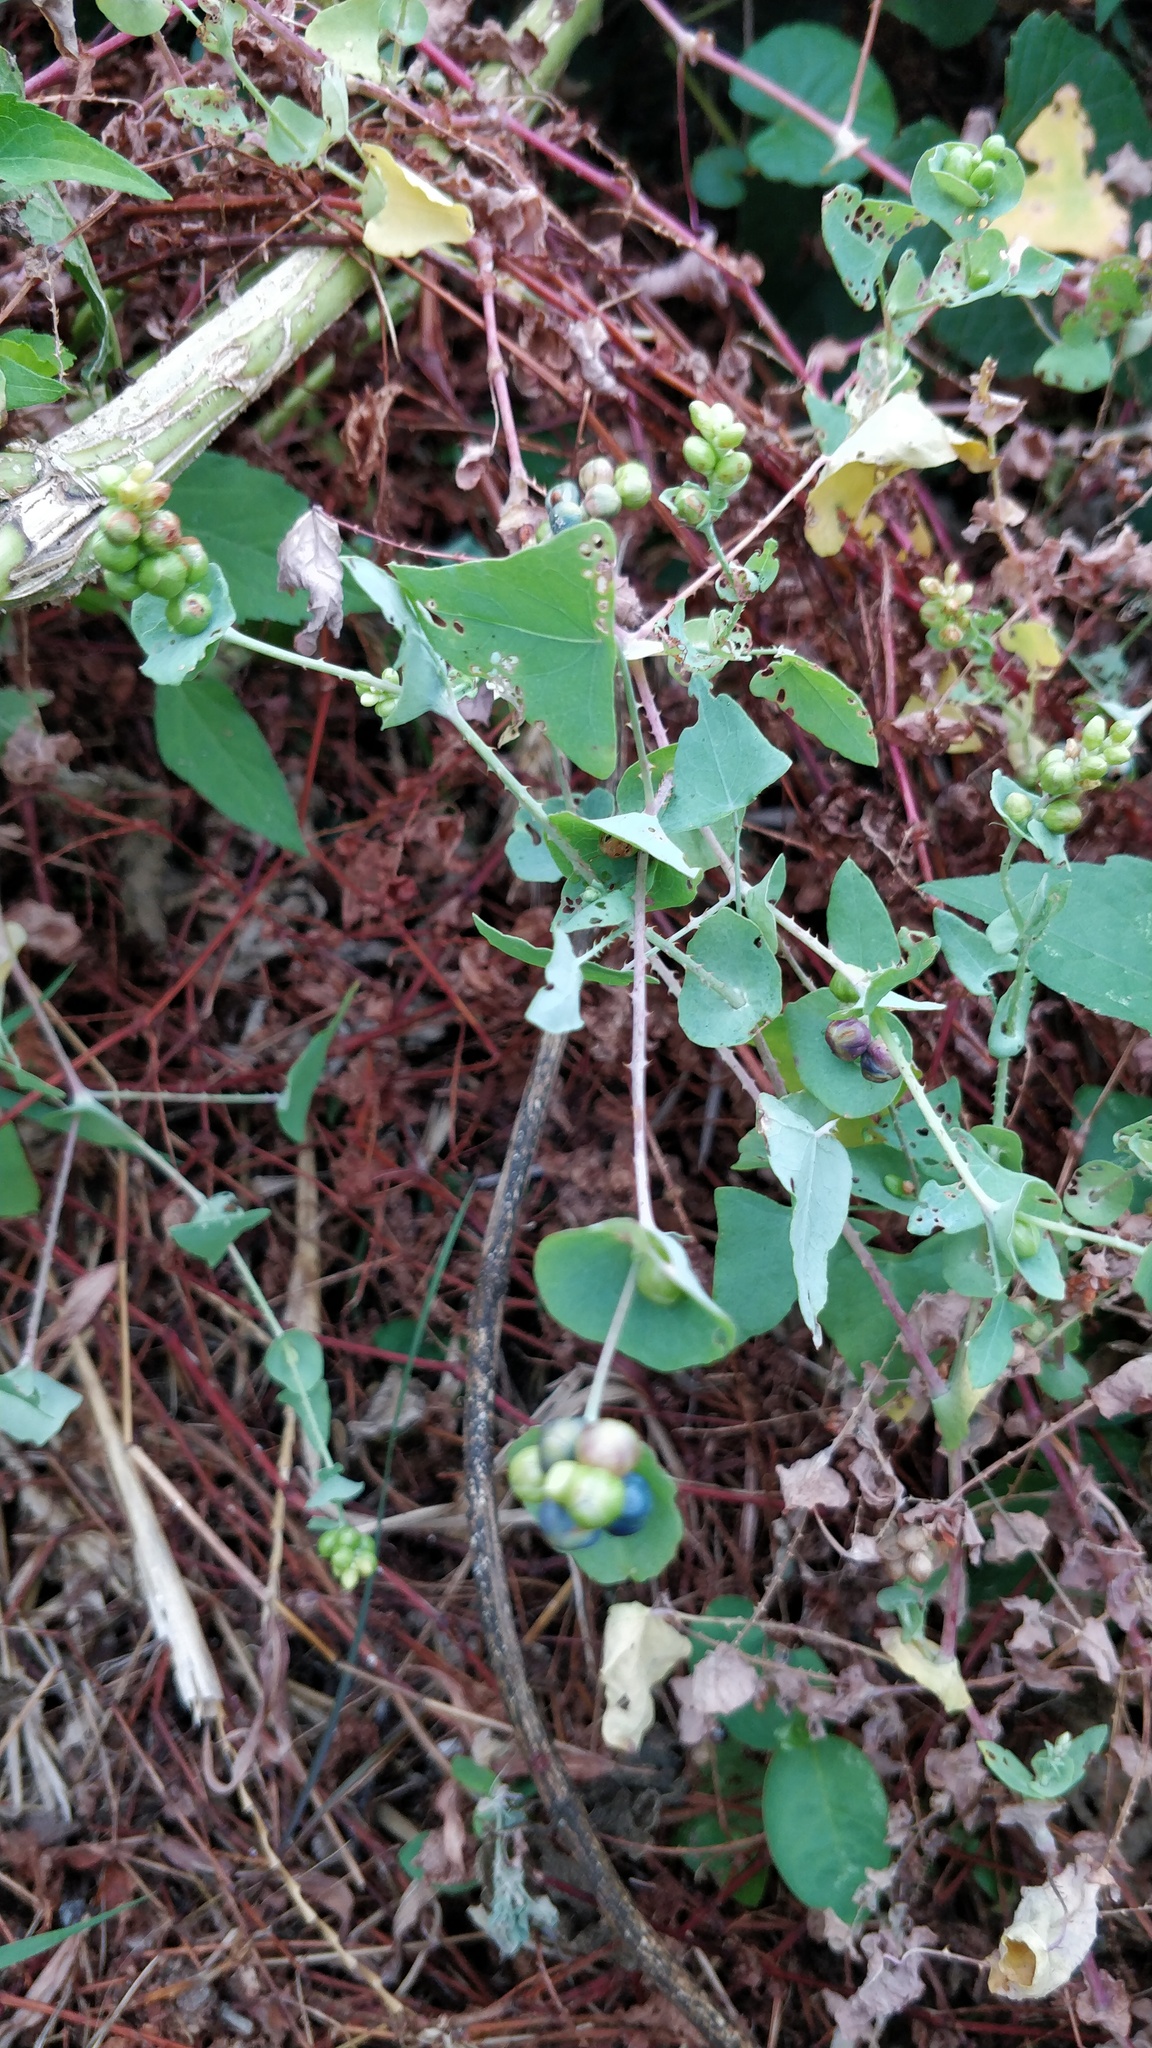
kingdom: Plantae
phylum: Tracheophyta
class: Magnoliopsida
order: Caryophyllales
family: Polygonaceae
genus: Persicaria
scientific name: Persicaria perfoliata
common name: Asiatic tearthumb
